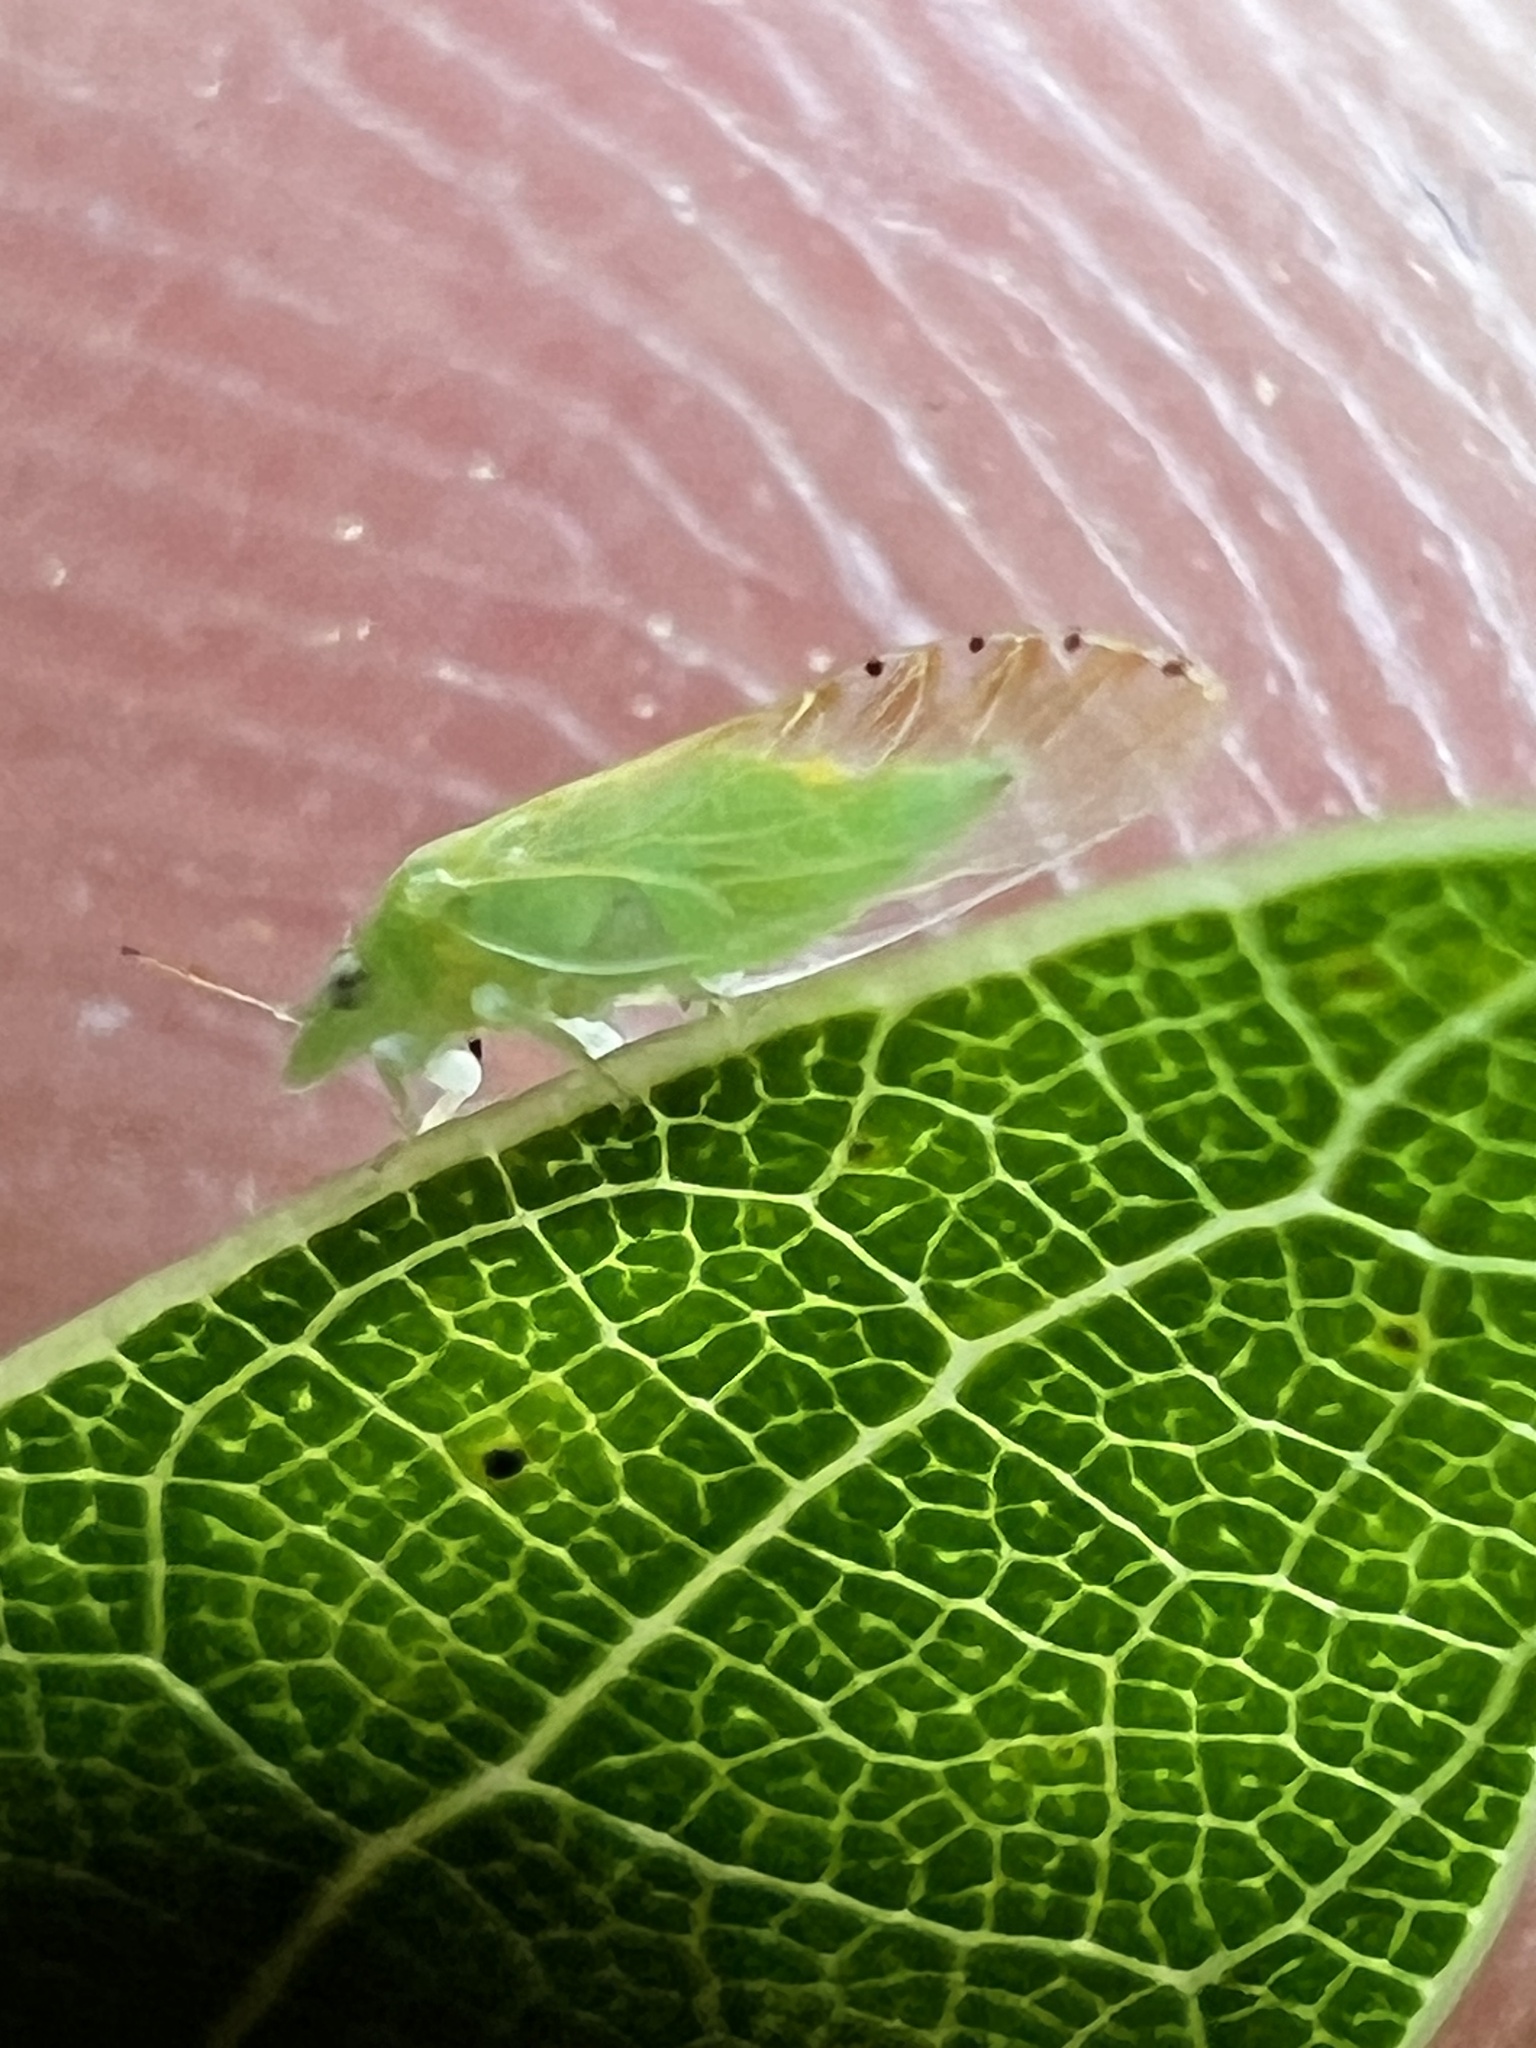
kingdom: Animalia
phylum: Arthropoda
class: Insecta
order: Hemiptera
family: Psyllidae
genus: Spanioneura
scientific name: Spanioneura fonscolombii
